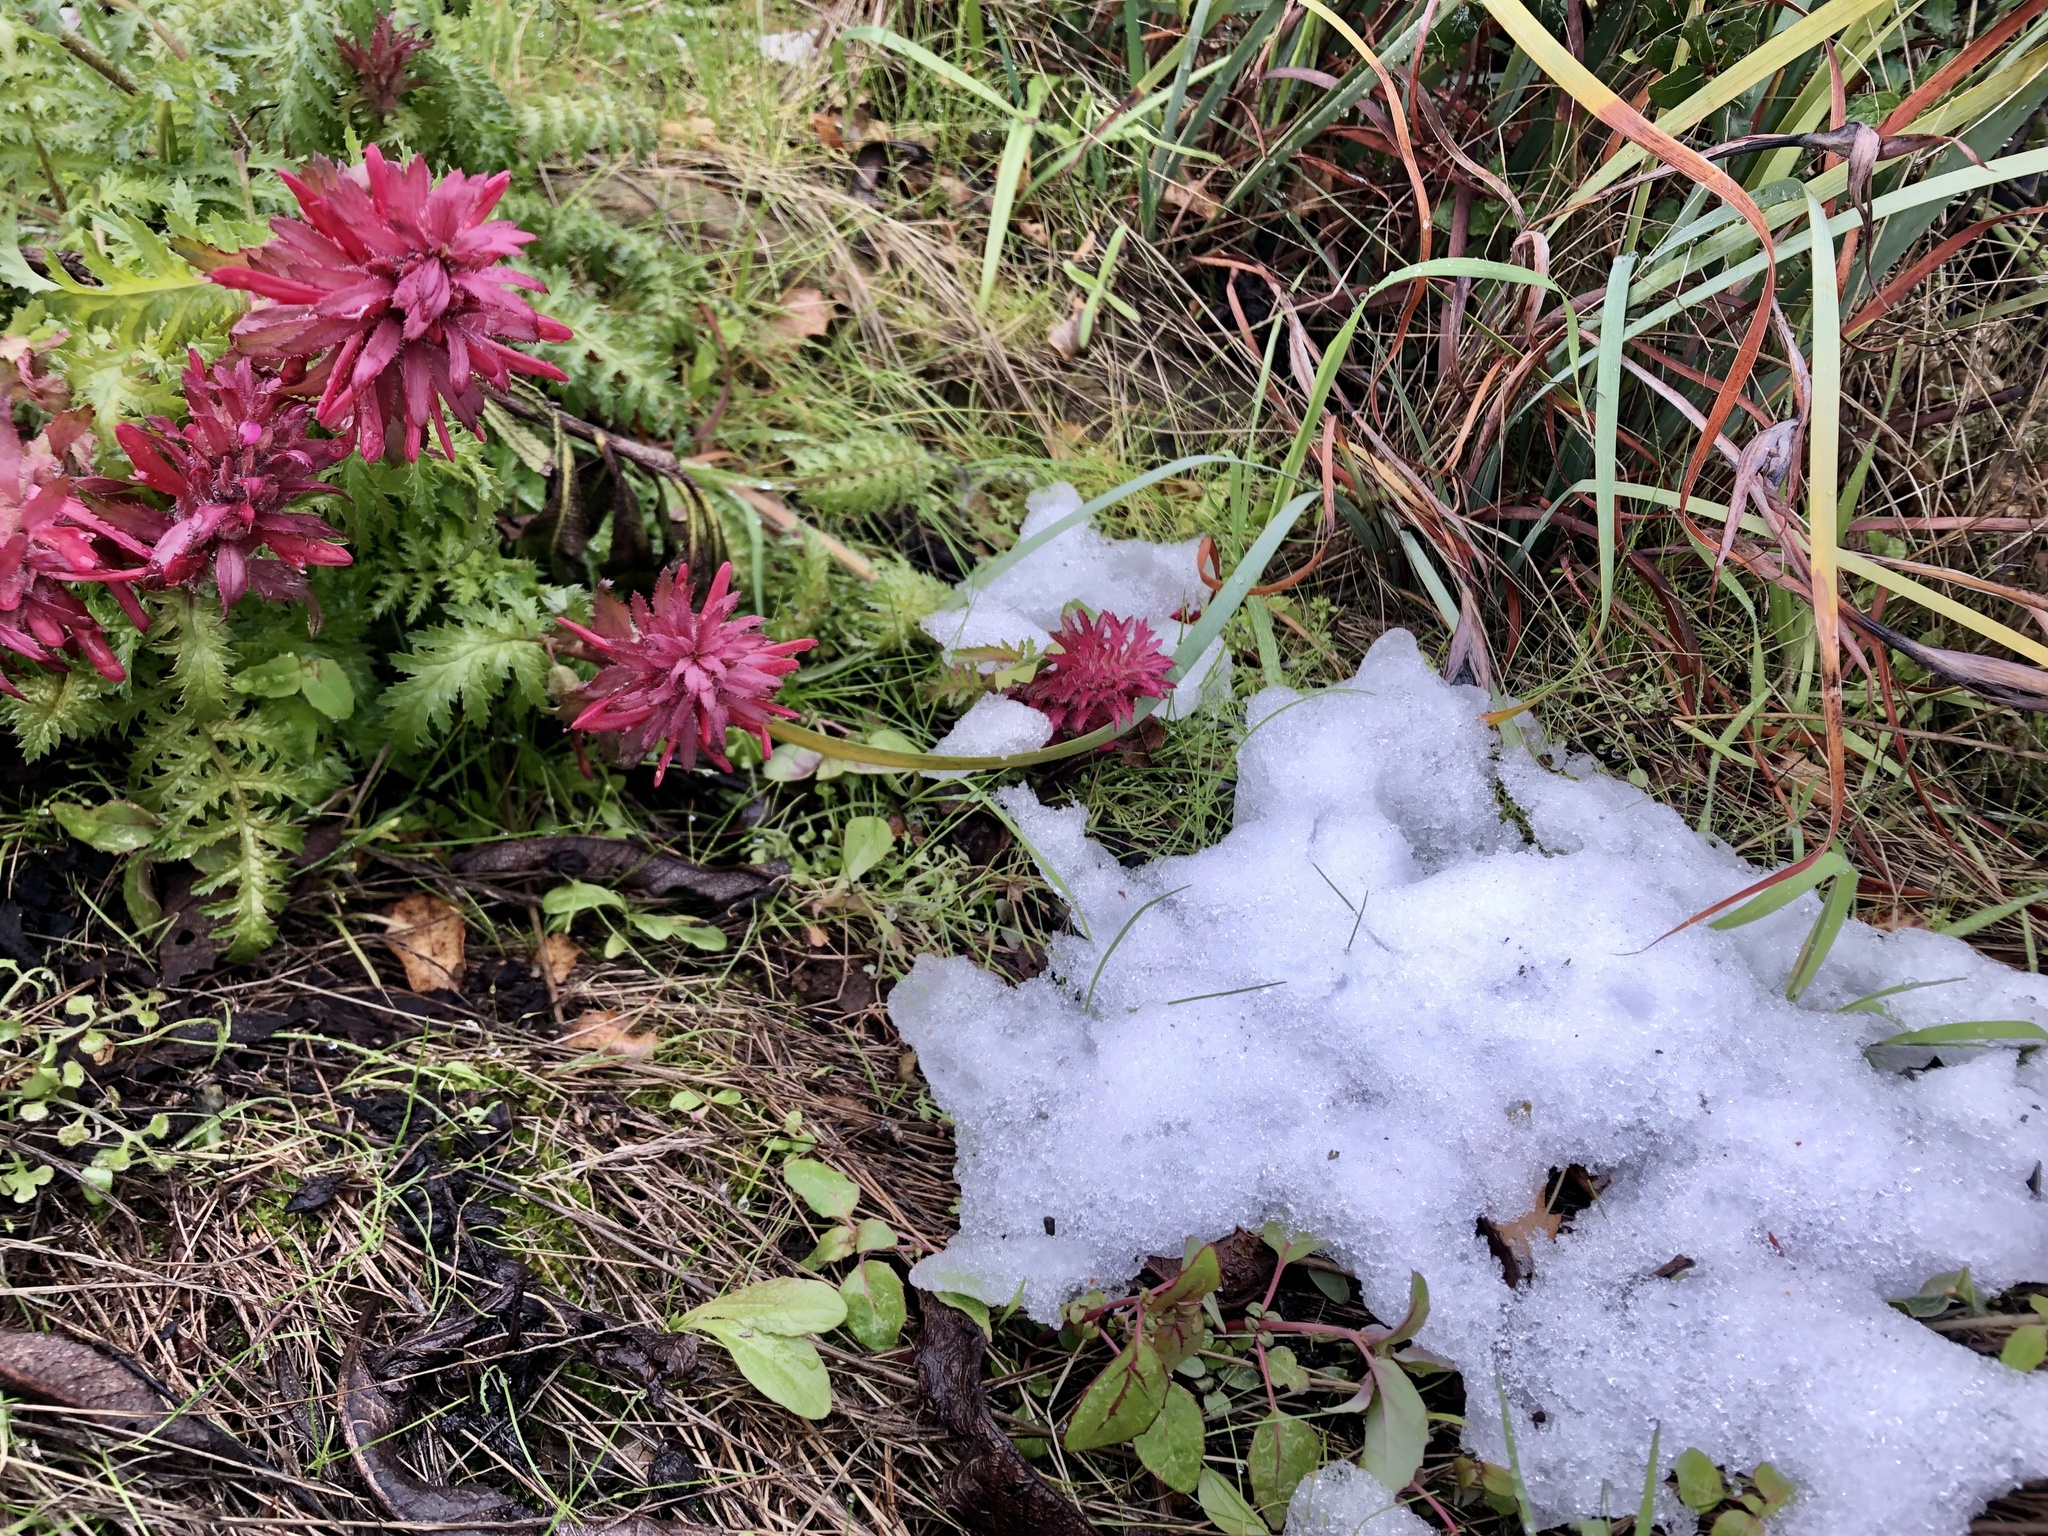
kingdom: Plantae
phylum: Tracheophyta
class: Magnoliopsida
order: Lamiales
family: Orobanchaceae
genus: Pedicularis
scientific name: Pedicularis densiflora
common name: Indian warrior
